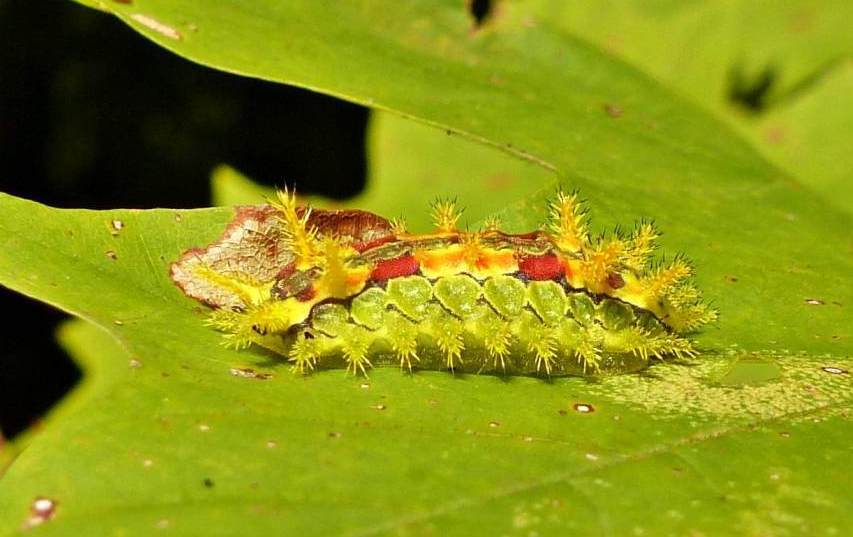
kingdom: Animalia
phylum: Arthropoda
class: Insecta
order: Lepidoptera
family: Limacodidae
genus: Euclea
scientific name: Euclea delphinii
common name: Spiny oak-slug moth
